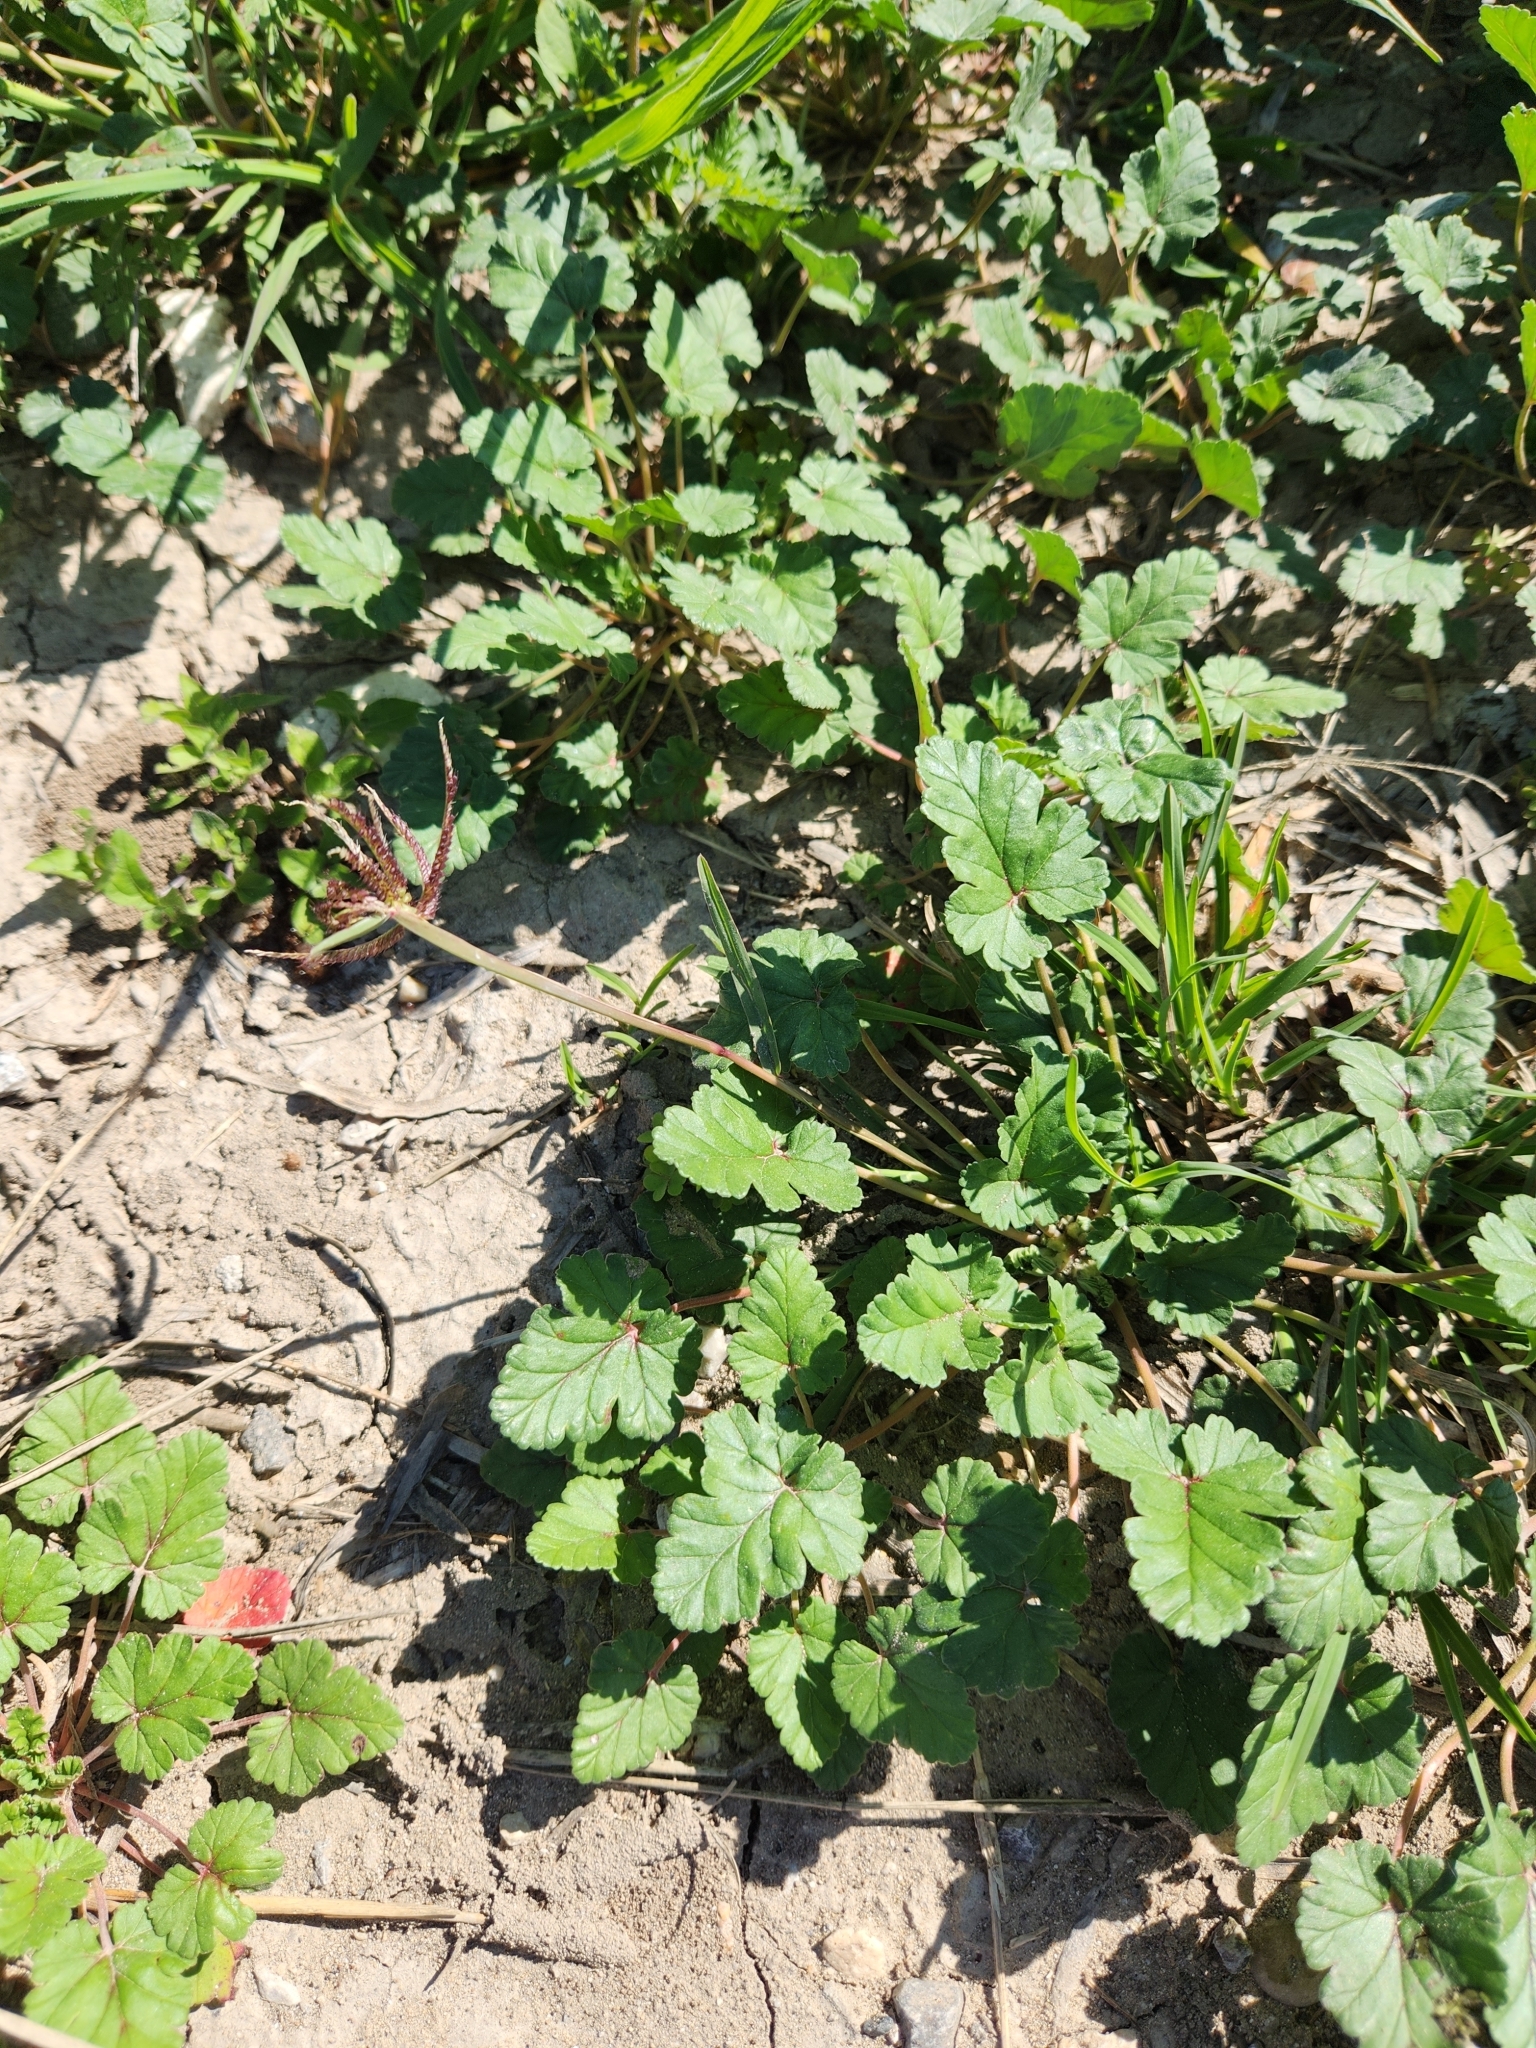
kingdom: Plantae
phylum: Tracheophyta
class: Magnoliopsida
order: Geraniales
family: Geraniaceae
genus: Erodium
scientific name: Erodium texanum
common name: Texas stork's-bill
